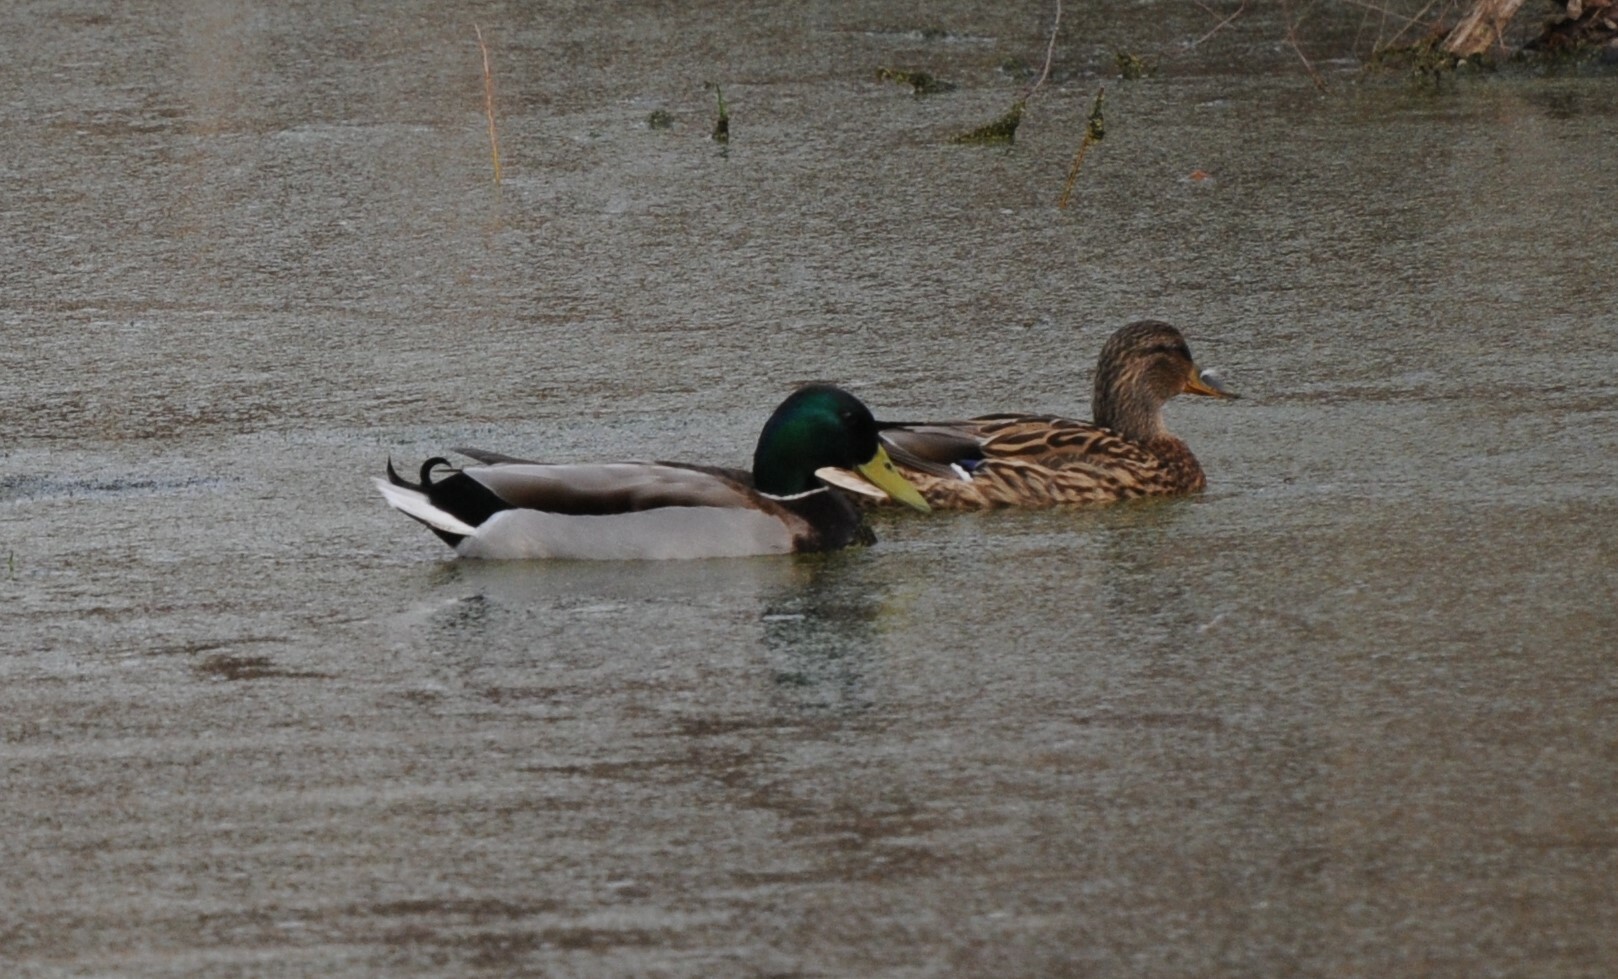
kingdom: Animalia
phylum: Chordata
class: Aves
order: Anseriformes
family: Anatidae
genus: Anas
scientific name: Anas platyrhynchos
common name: Mallard
